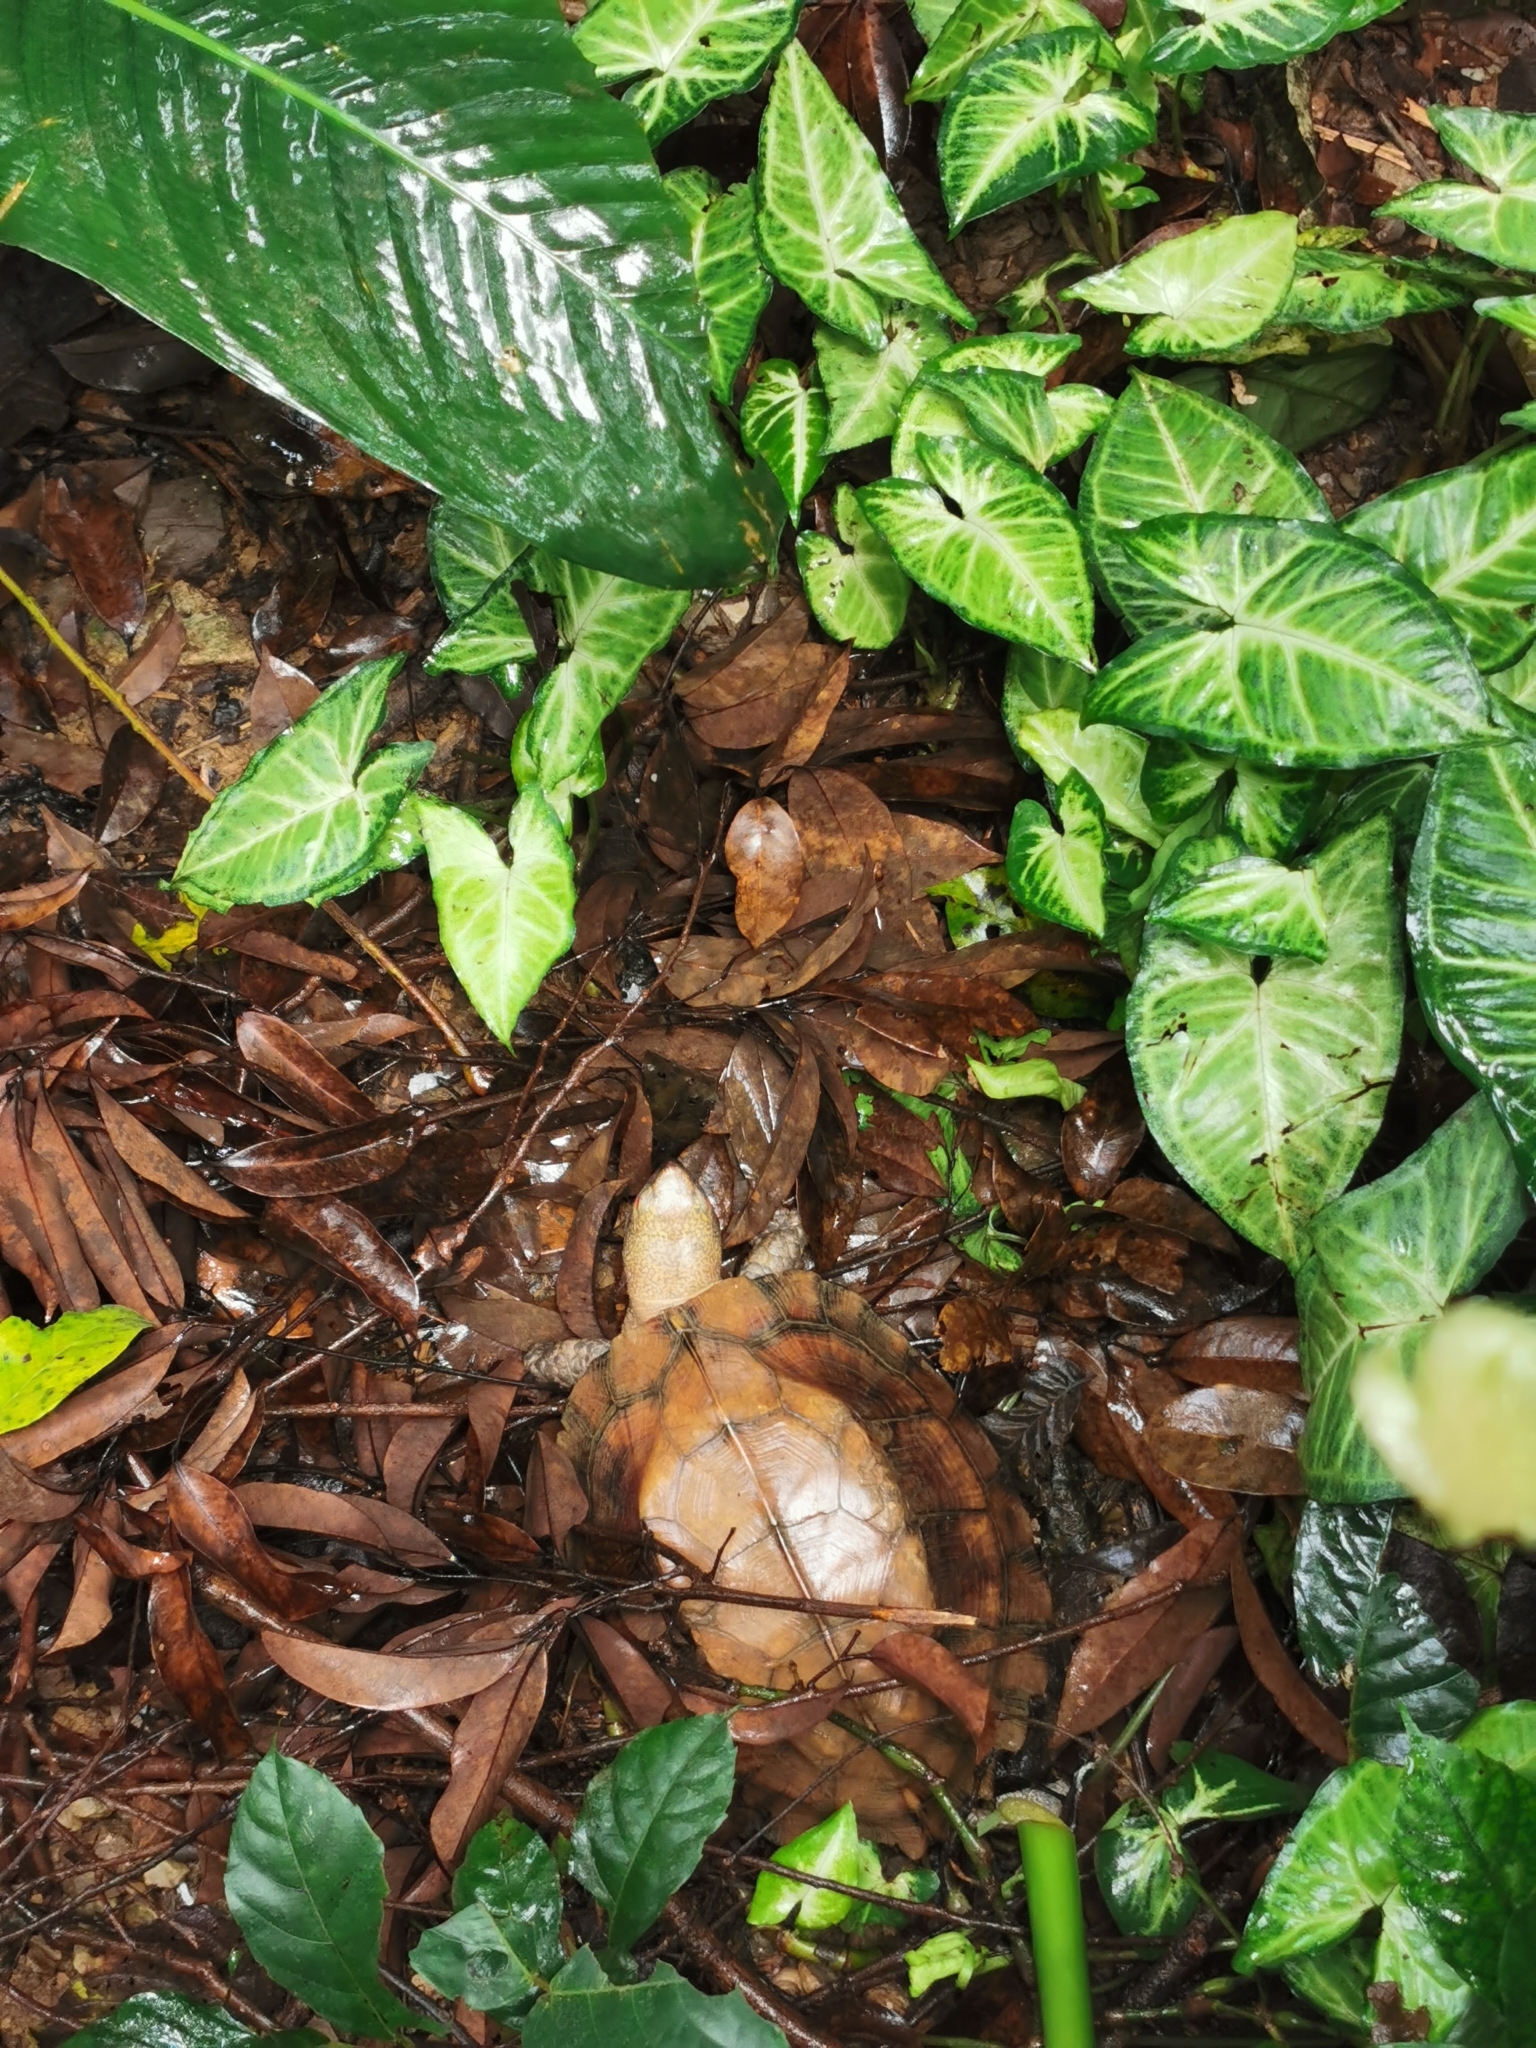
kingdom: Animalia
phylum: Chordata
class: Testudines
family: Geoemydidae
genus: Cuora
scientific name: Cuora mouhotii
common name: Keeled box turtle
